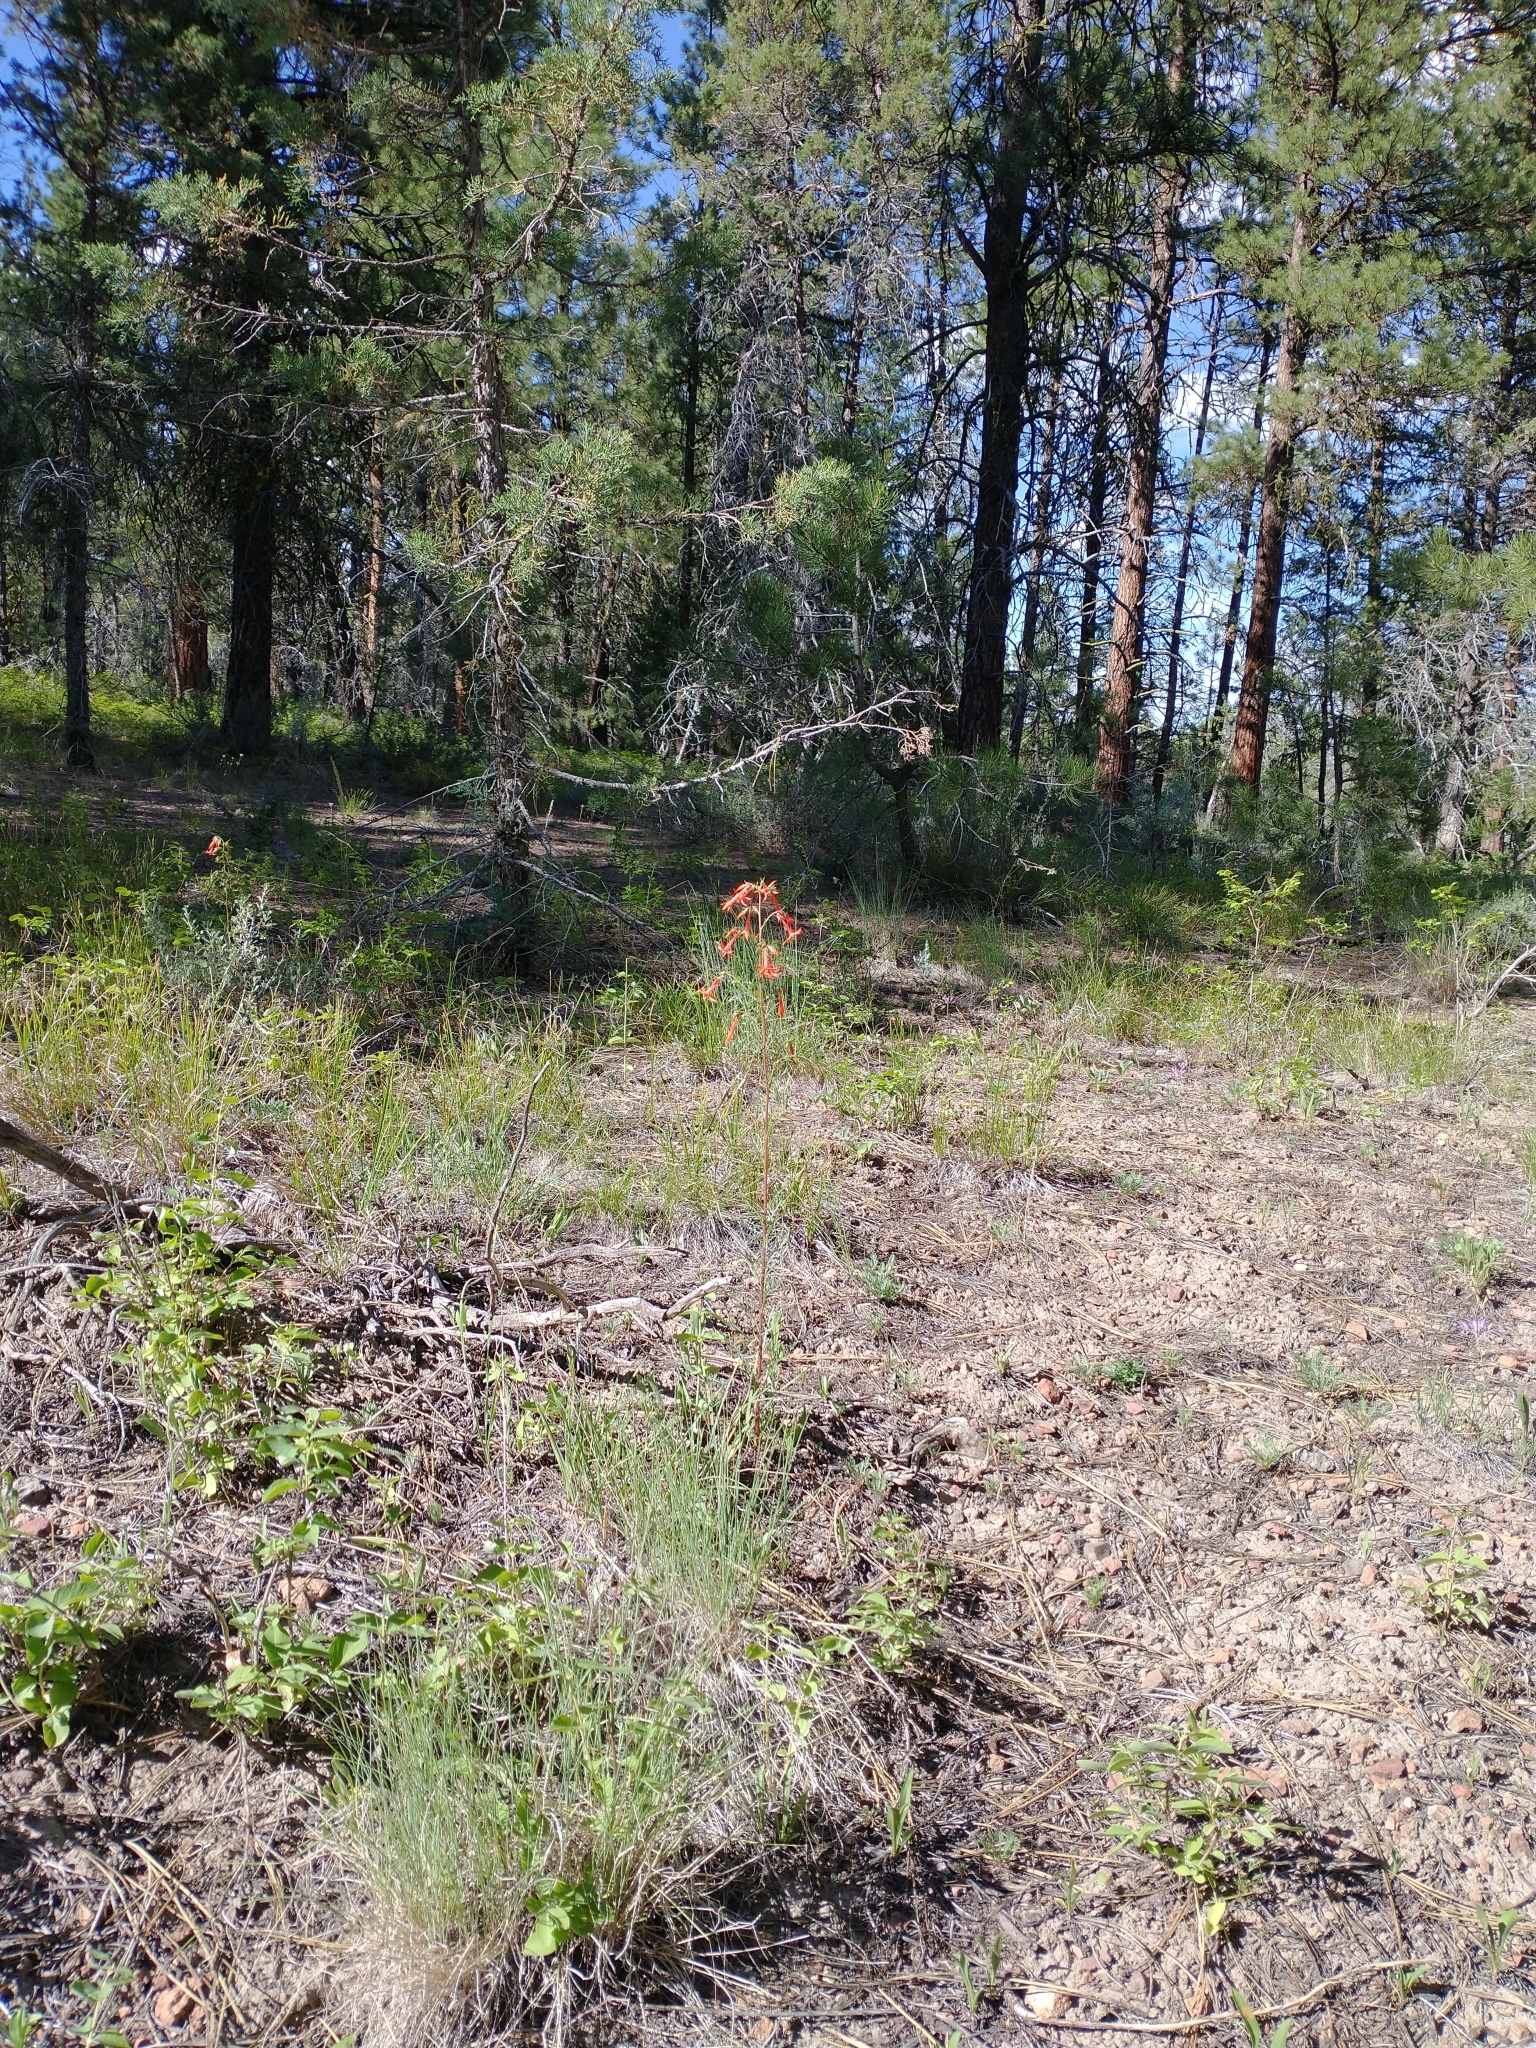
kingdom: Plantae
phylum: Tracheophyta
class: Magnoliopsida
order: Ericales
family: Polemoniaceae
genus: Ipomopsis
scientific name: Ipomopsis aggregata
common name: Scarlet gilia
